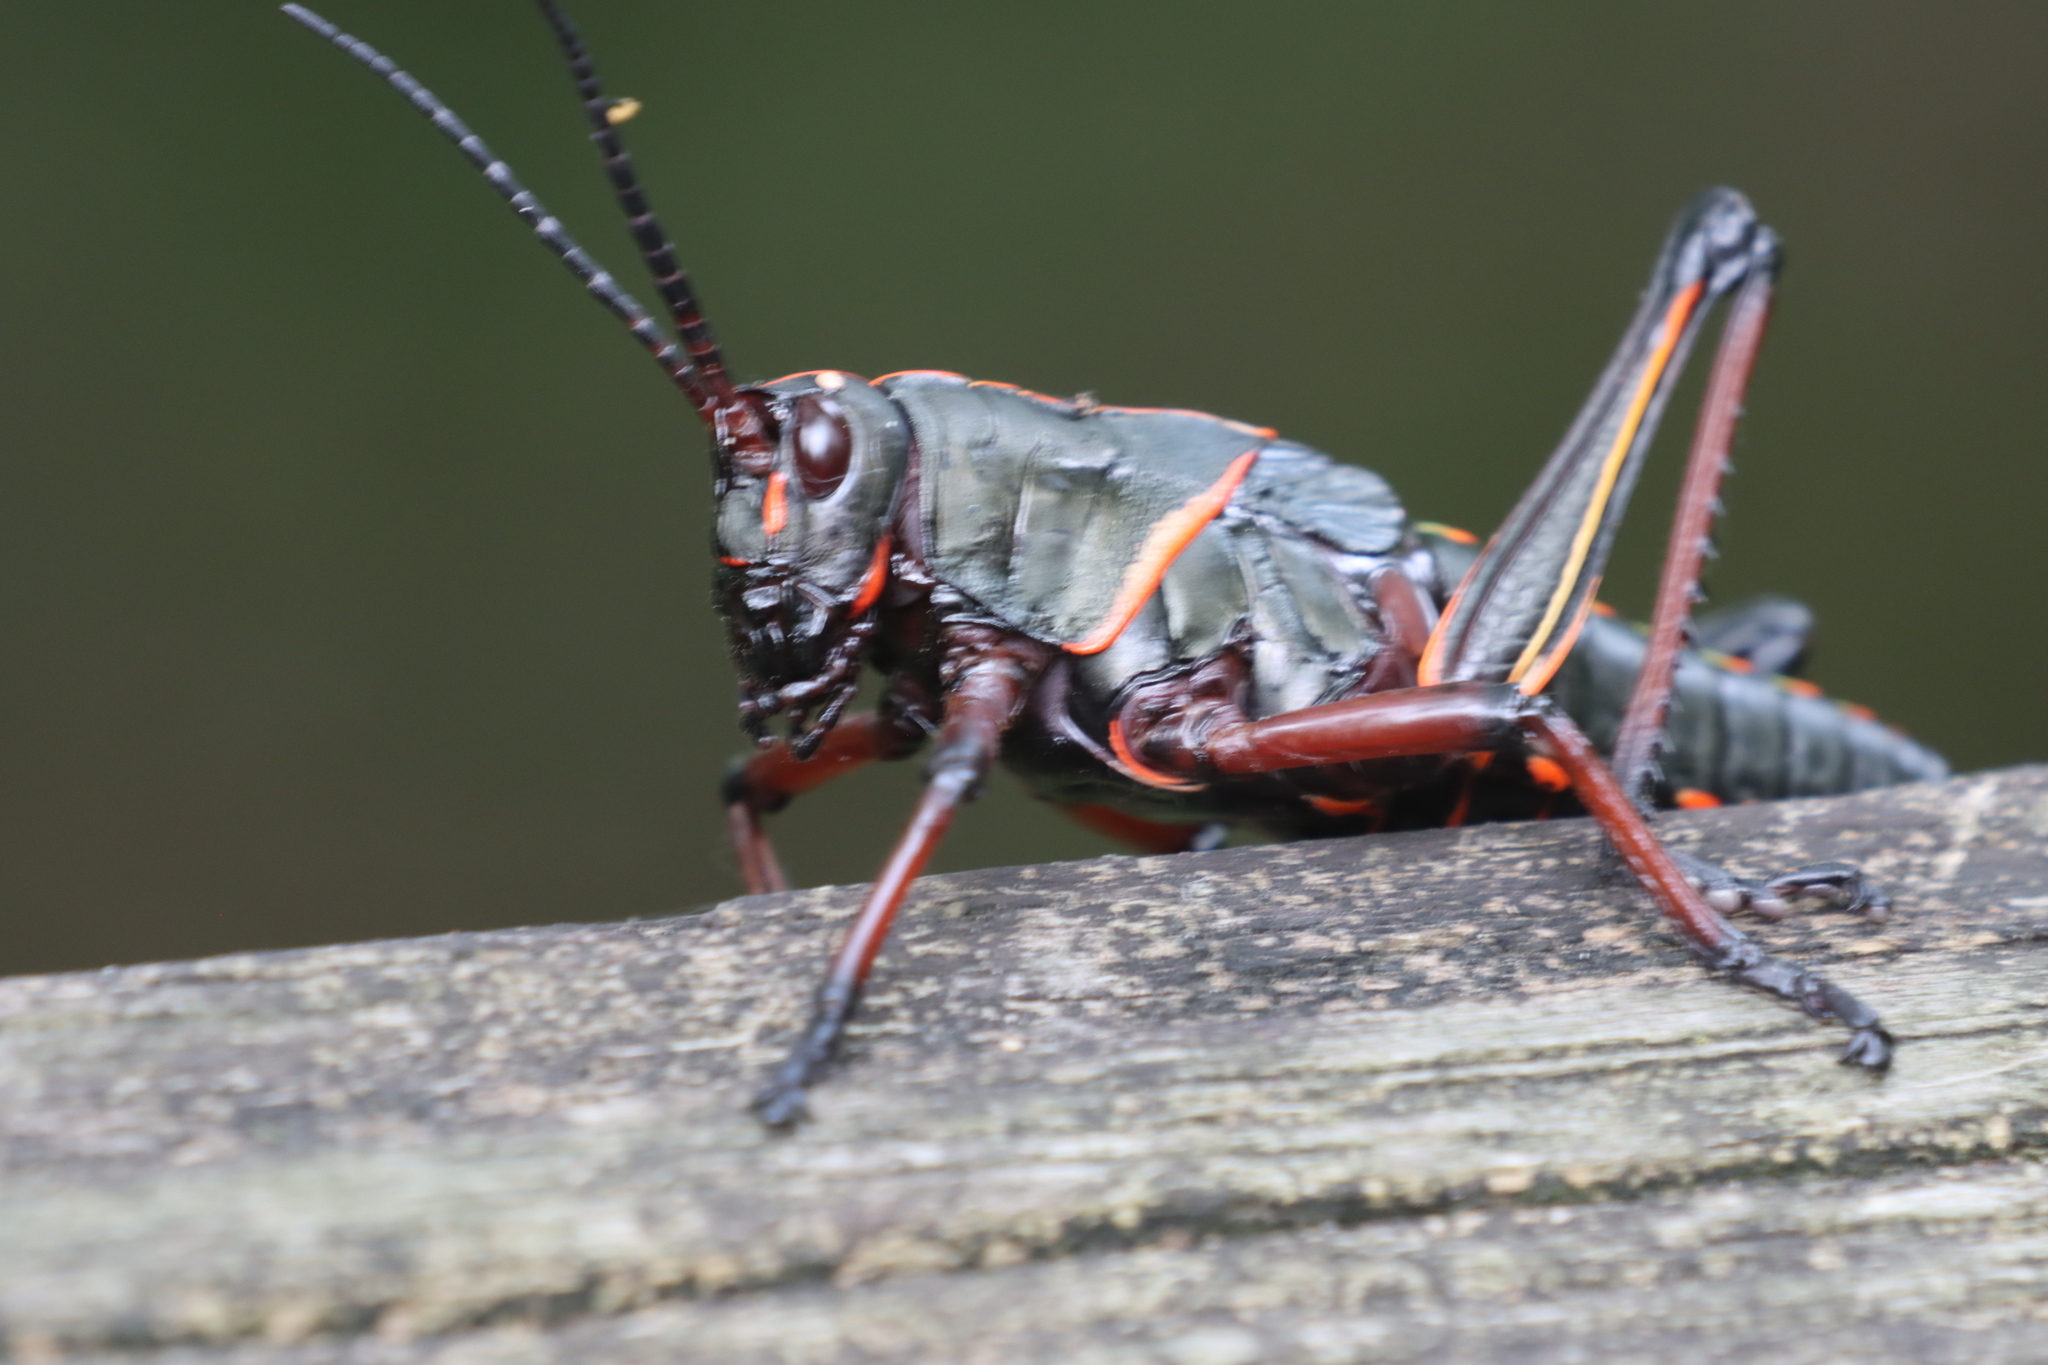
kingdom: Animalia
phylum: Arthropoda
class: Insecta
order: Orthoptera
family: Romaleidae
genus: Romalea
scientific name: Romalea microptera
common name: Eastern lubber grasshopper
